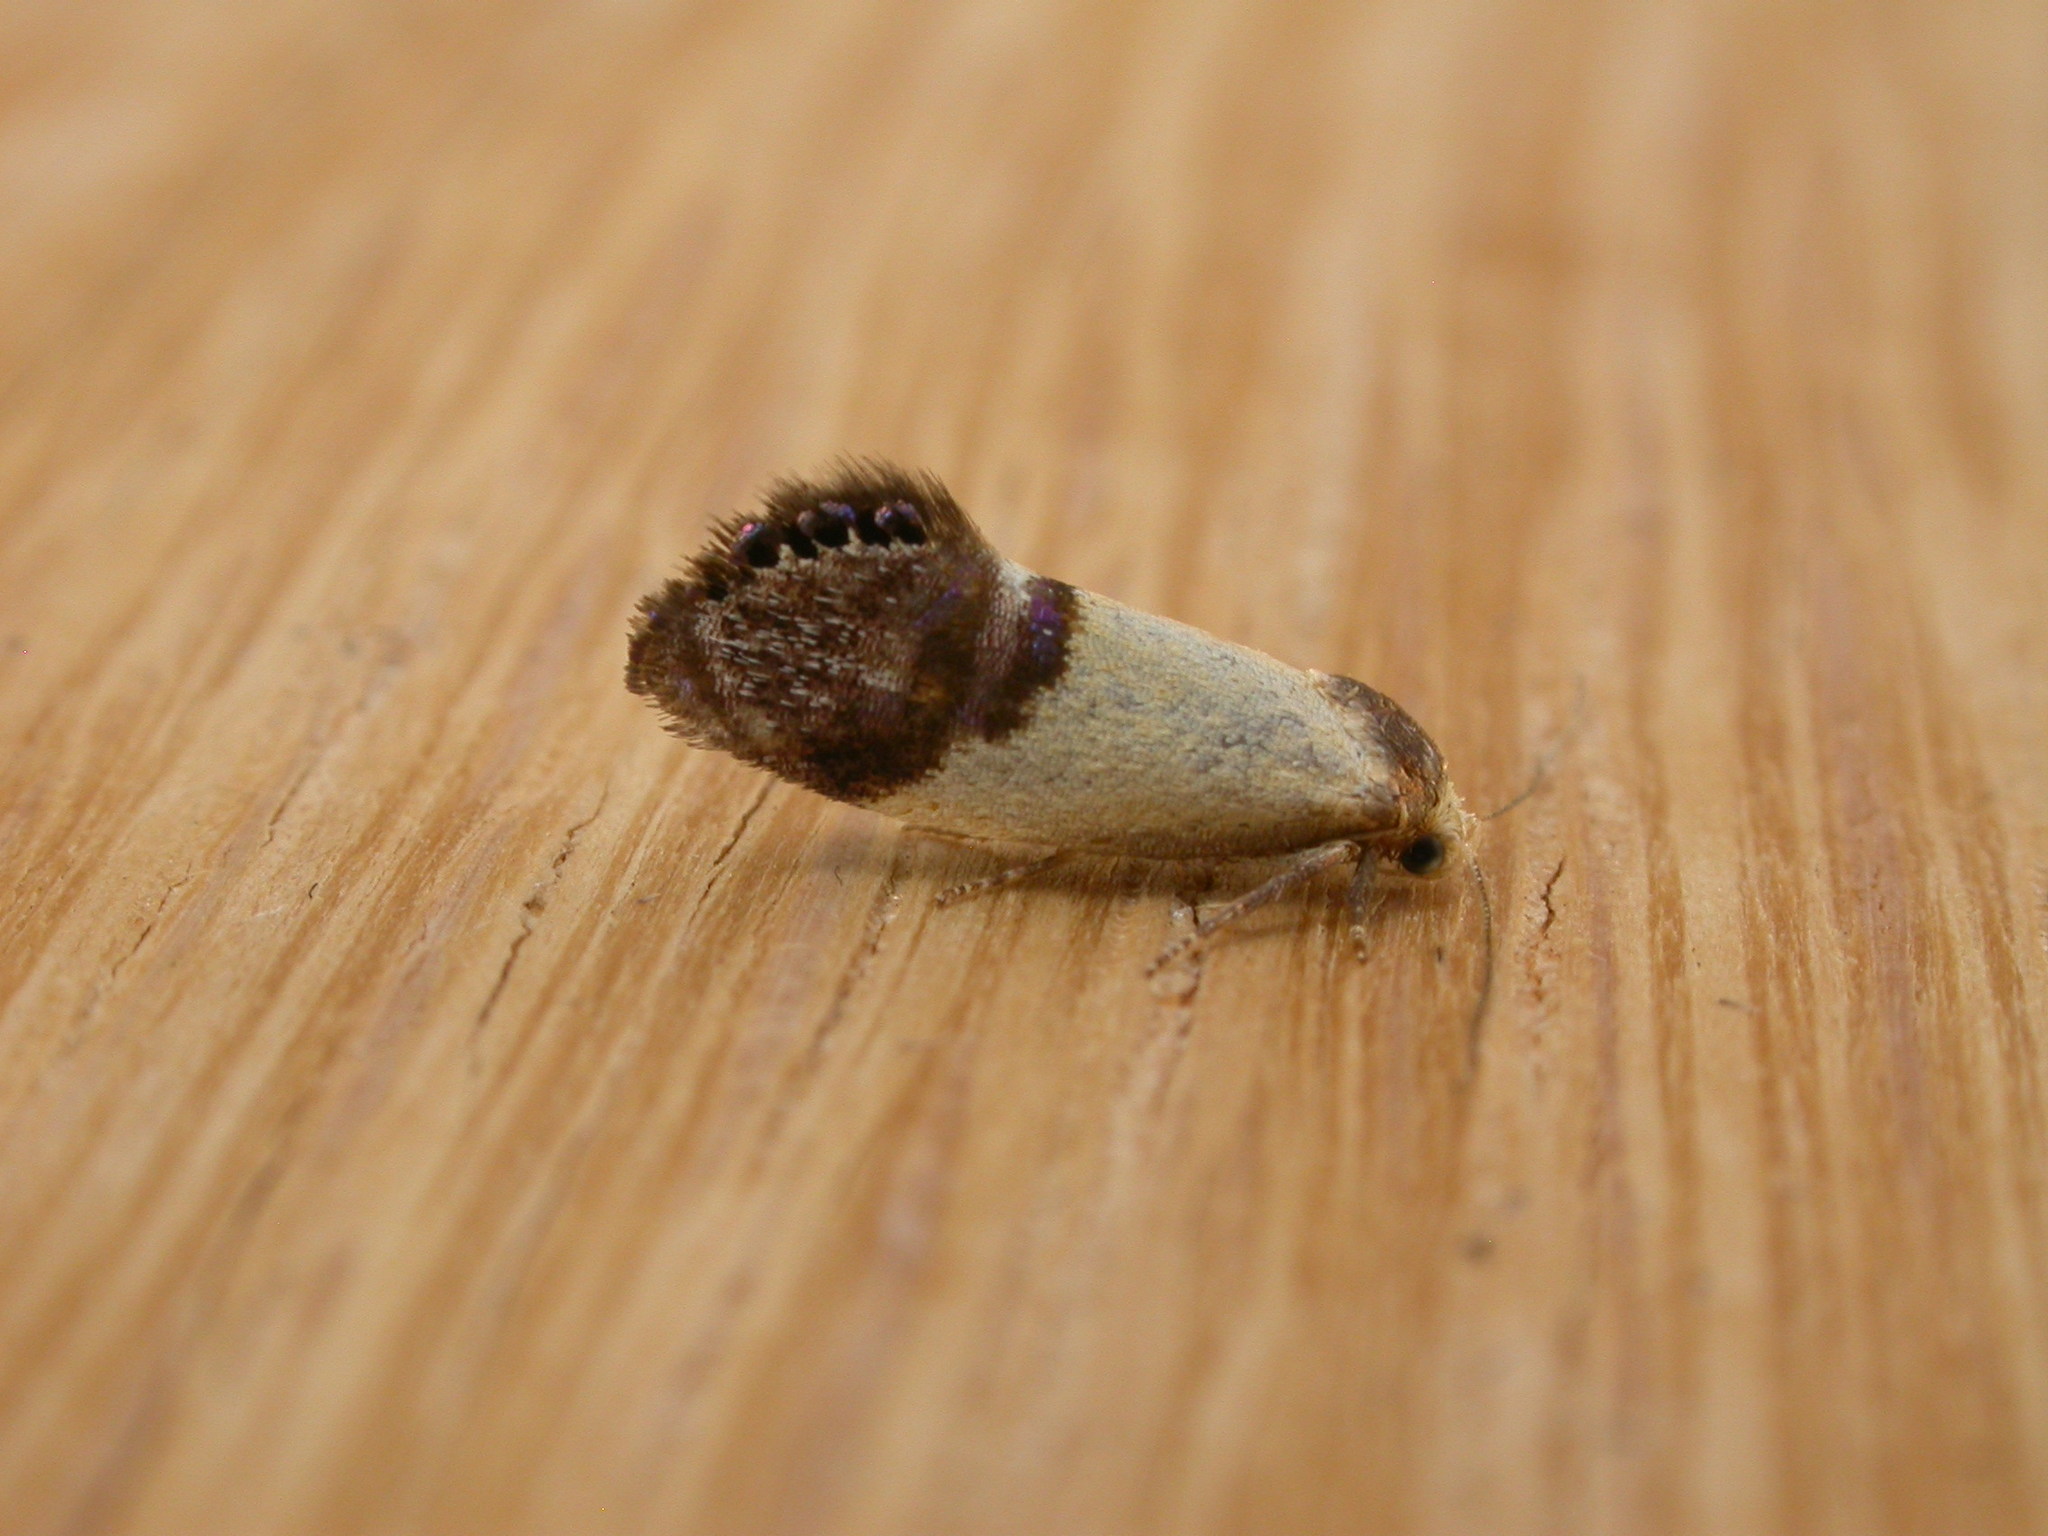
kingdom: Animalia
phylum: Arthropoda
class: Insecta
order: Lepidoptera
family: Depressariidae
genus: Eupselia
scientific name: Eupselia satrapella
